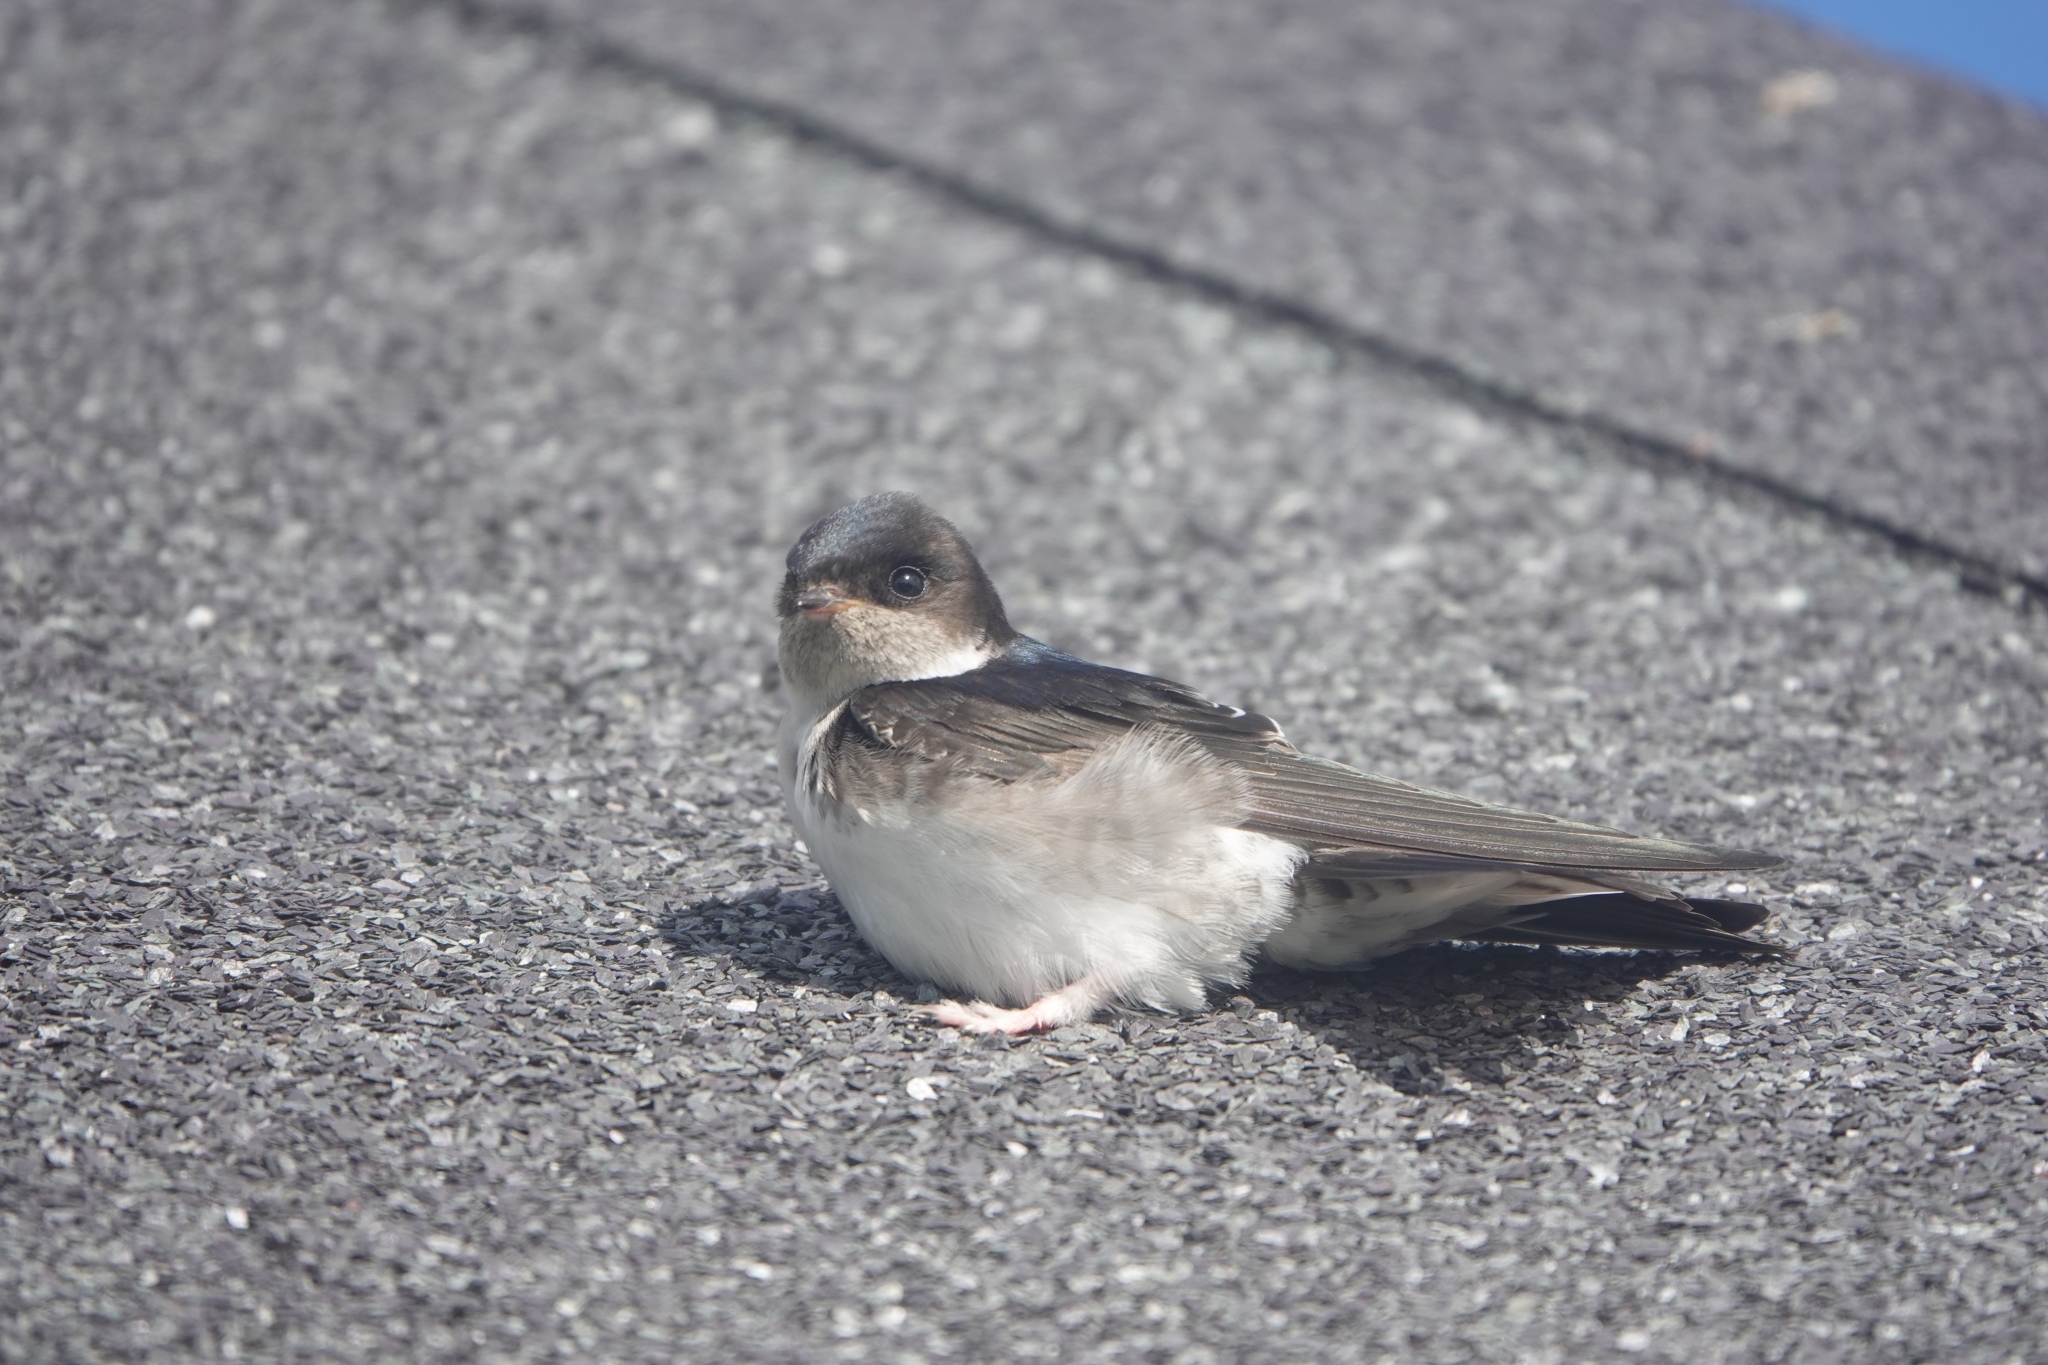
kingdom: Animalia
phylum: Chordata
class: Aves
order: Passeriformes
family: Hirundinidae
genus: Delichon
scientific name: Delichon urbicum
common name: Common house martin
